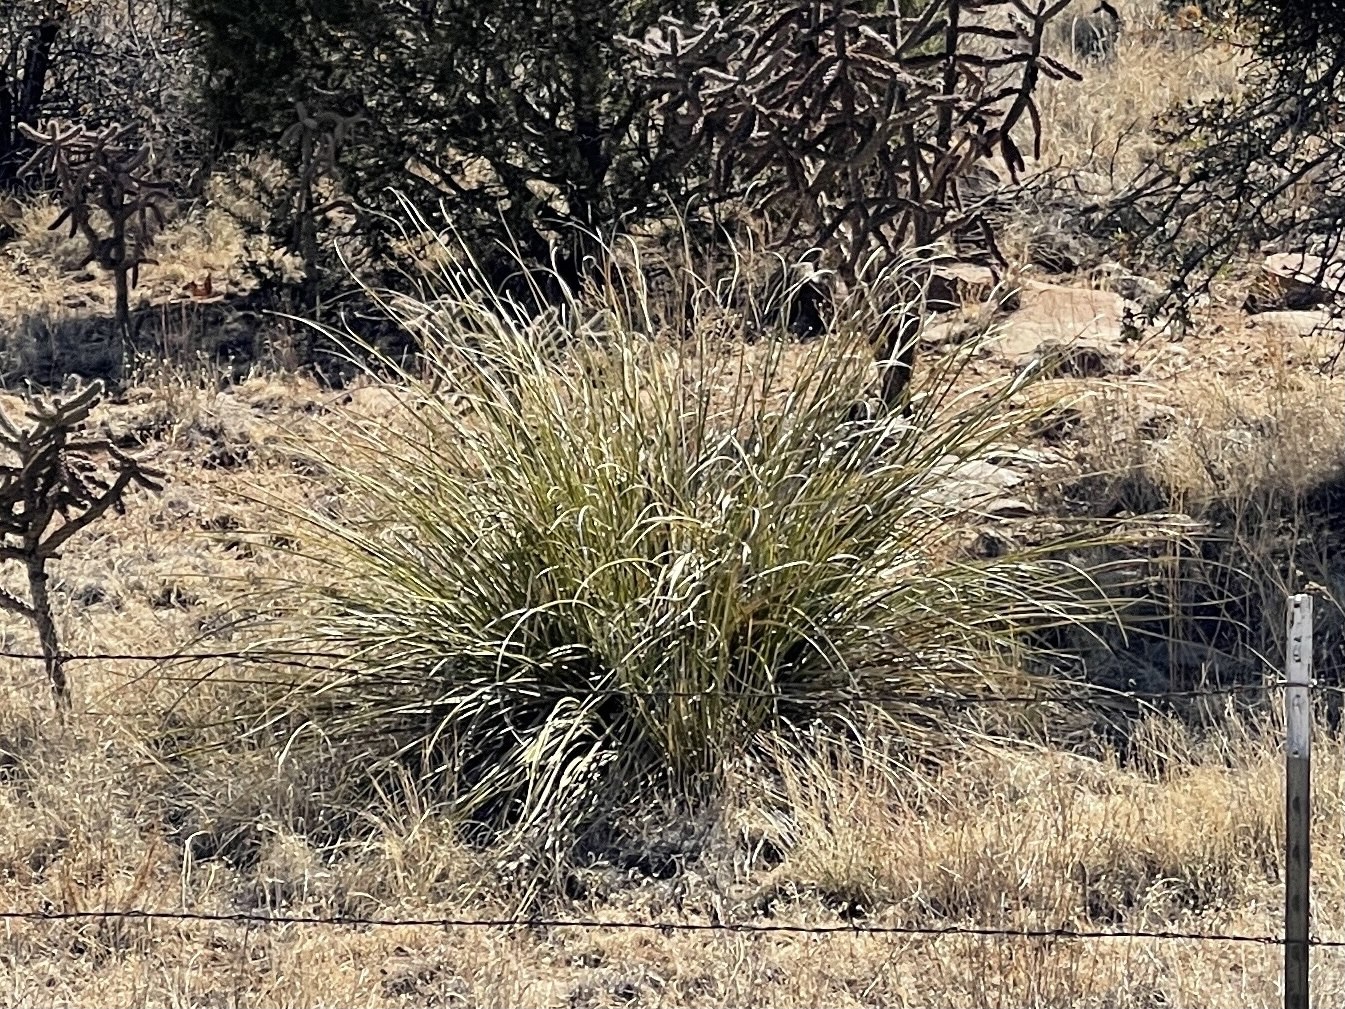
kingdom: Plantae
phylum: Tracheophyta
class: Liliopsida
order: Asparagales
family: Asparagaceae
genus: Nolina
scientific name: Nolina microcarpa
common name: Bear-grass
